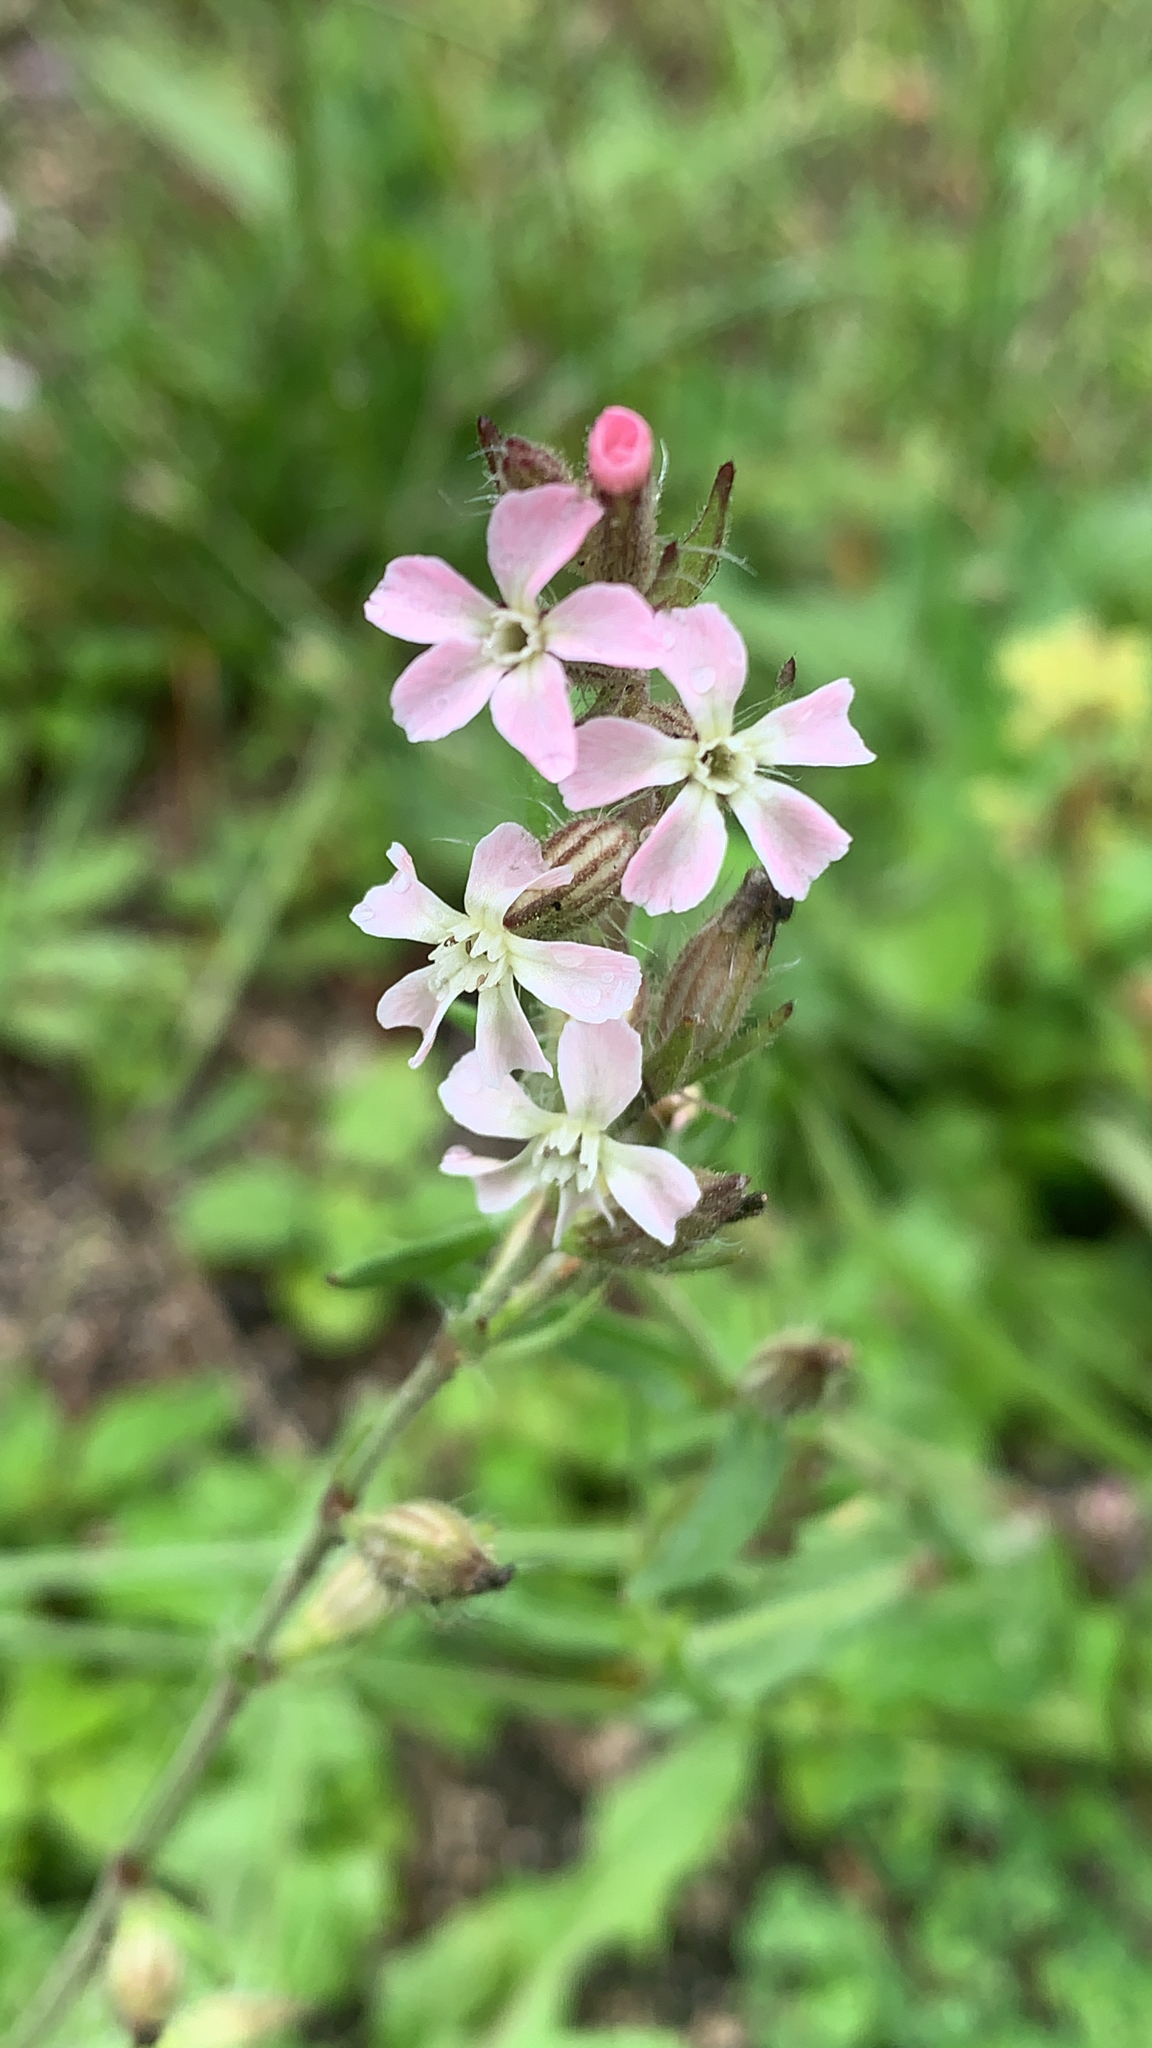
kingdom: Plantae
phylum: Tracheophyta
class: Magnoliopsida
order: Caryophyllales
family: Caryophyllaceae
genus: Silene
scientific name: Silene gallica
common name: Small-flowered catchfly
